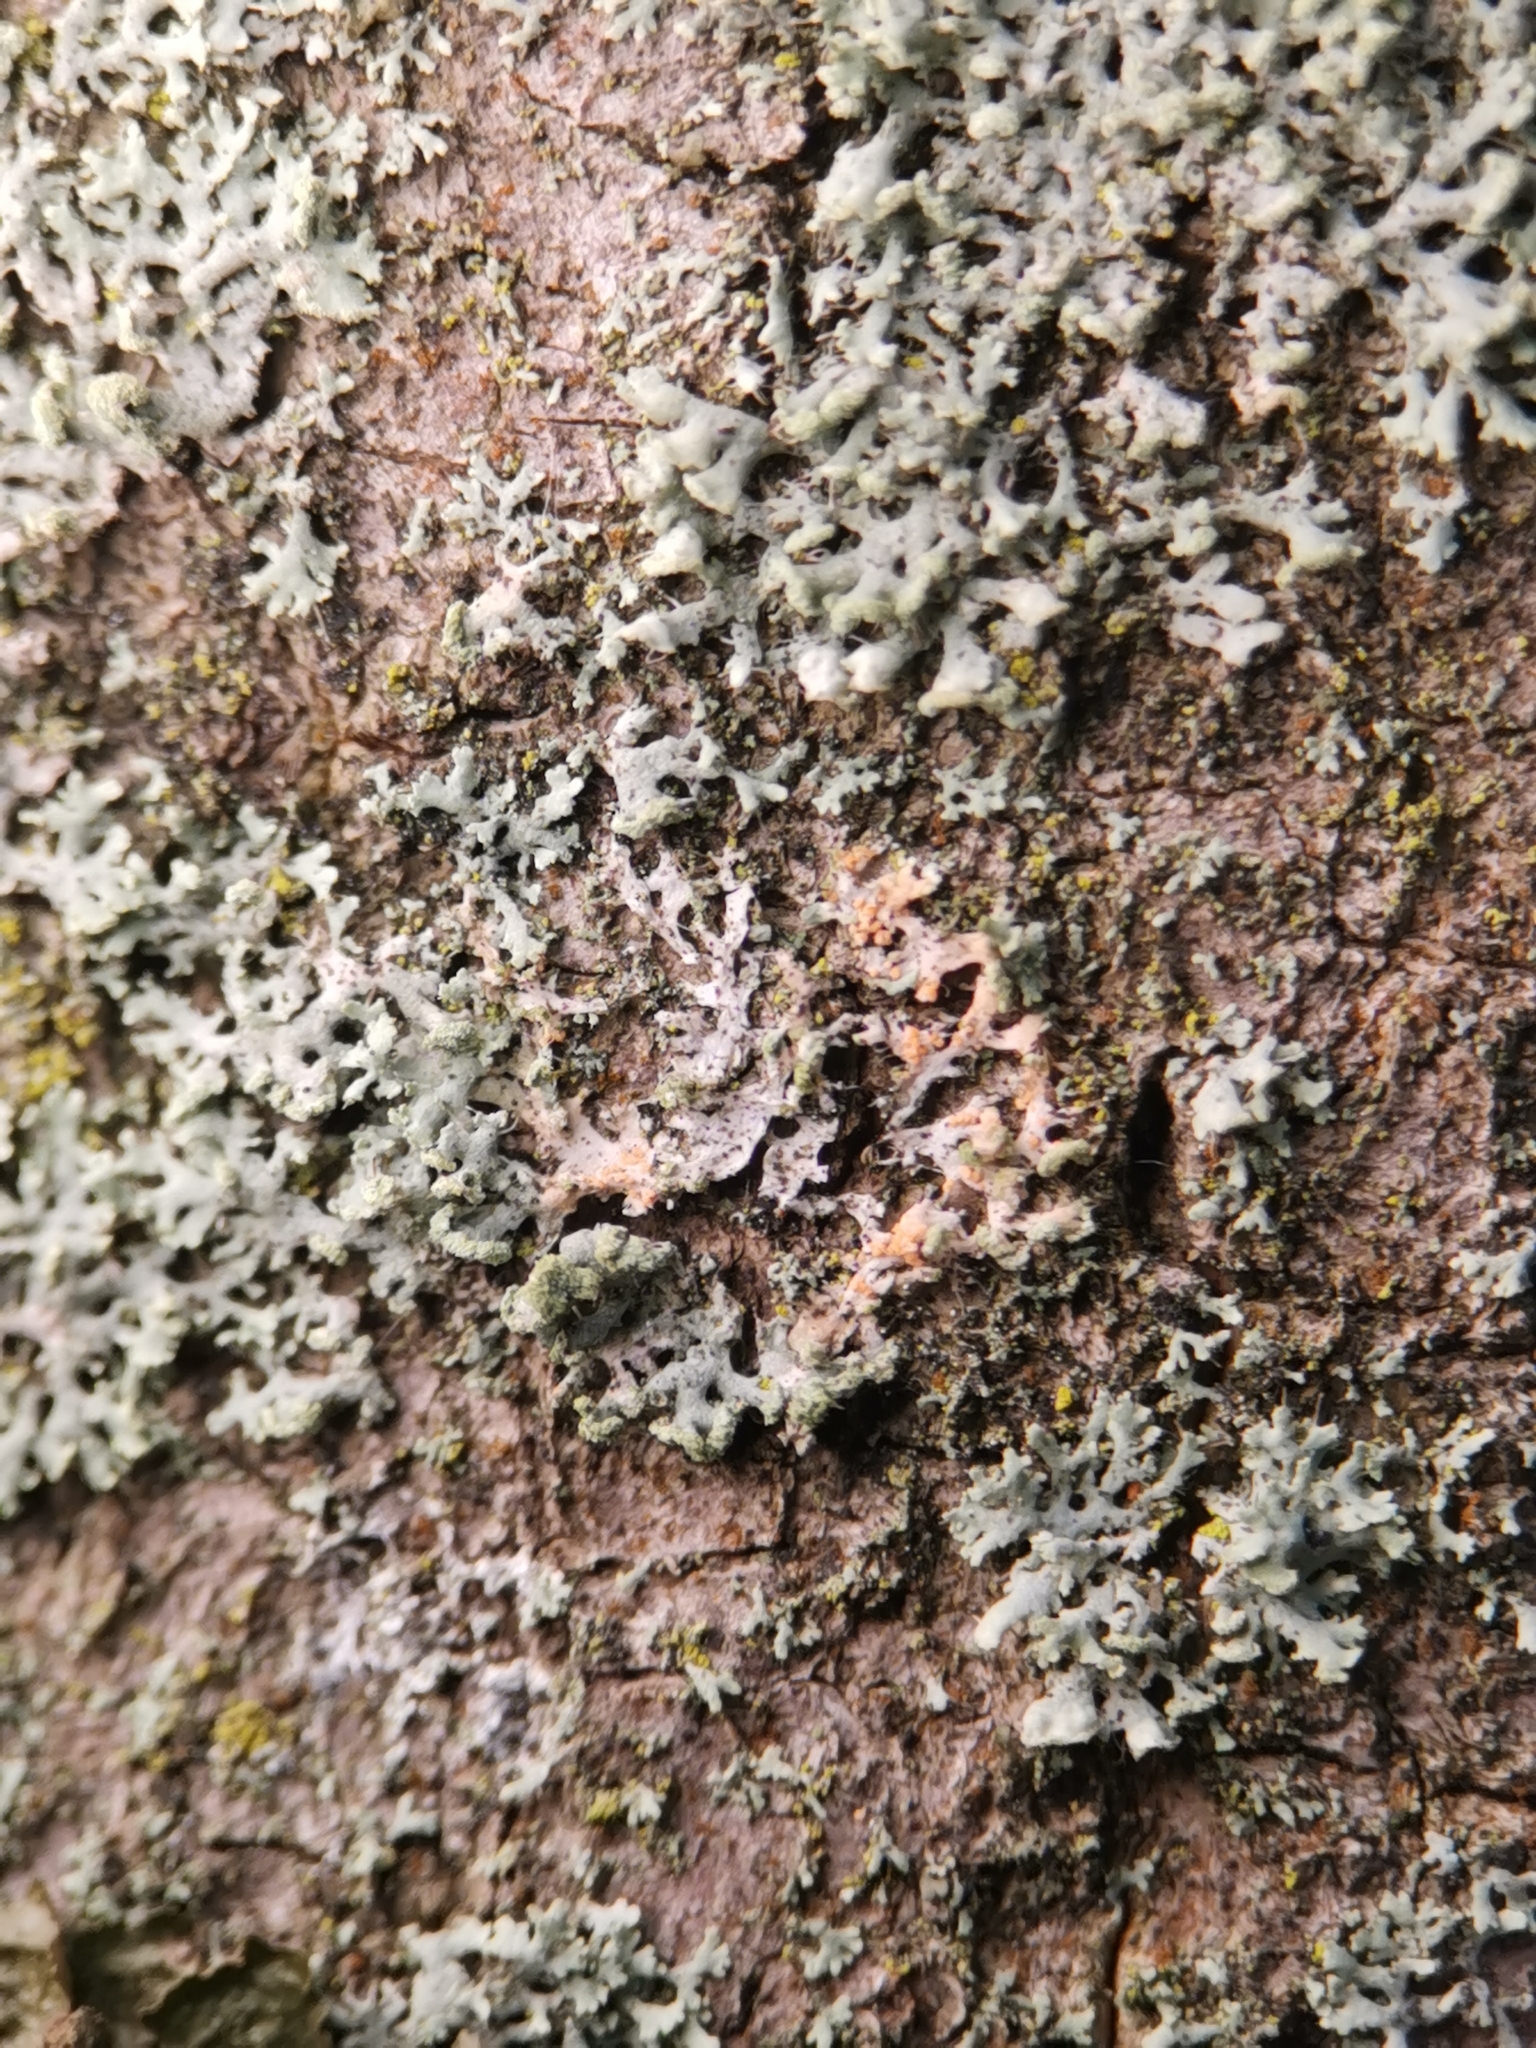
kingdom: Fungi
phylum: Basidiomycota
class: Agaricomycetes
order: Corticiales
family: Corticiaceae
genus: Erythricium
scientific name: Erythricium aurantiacum
